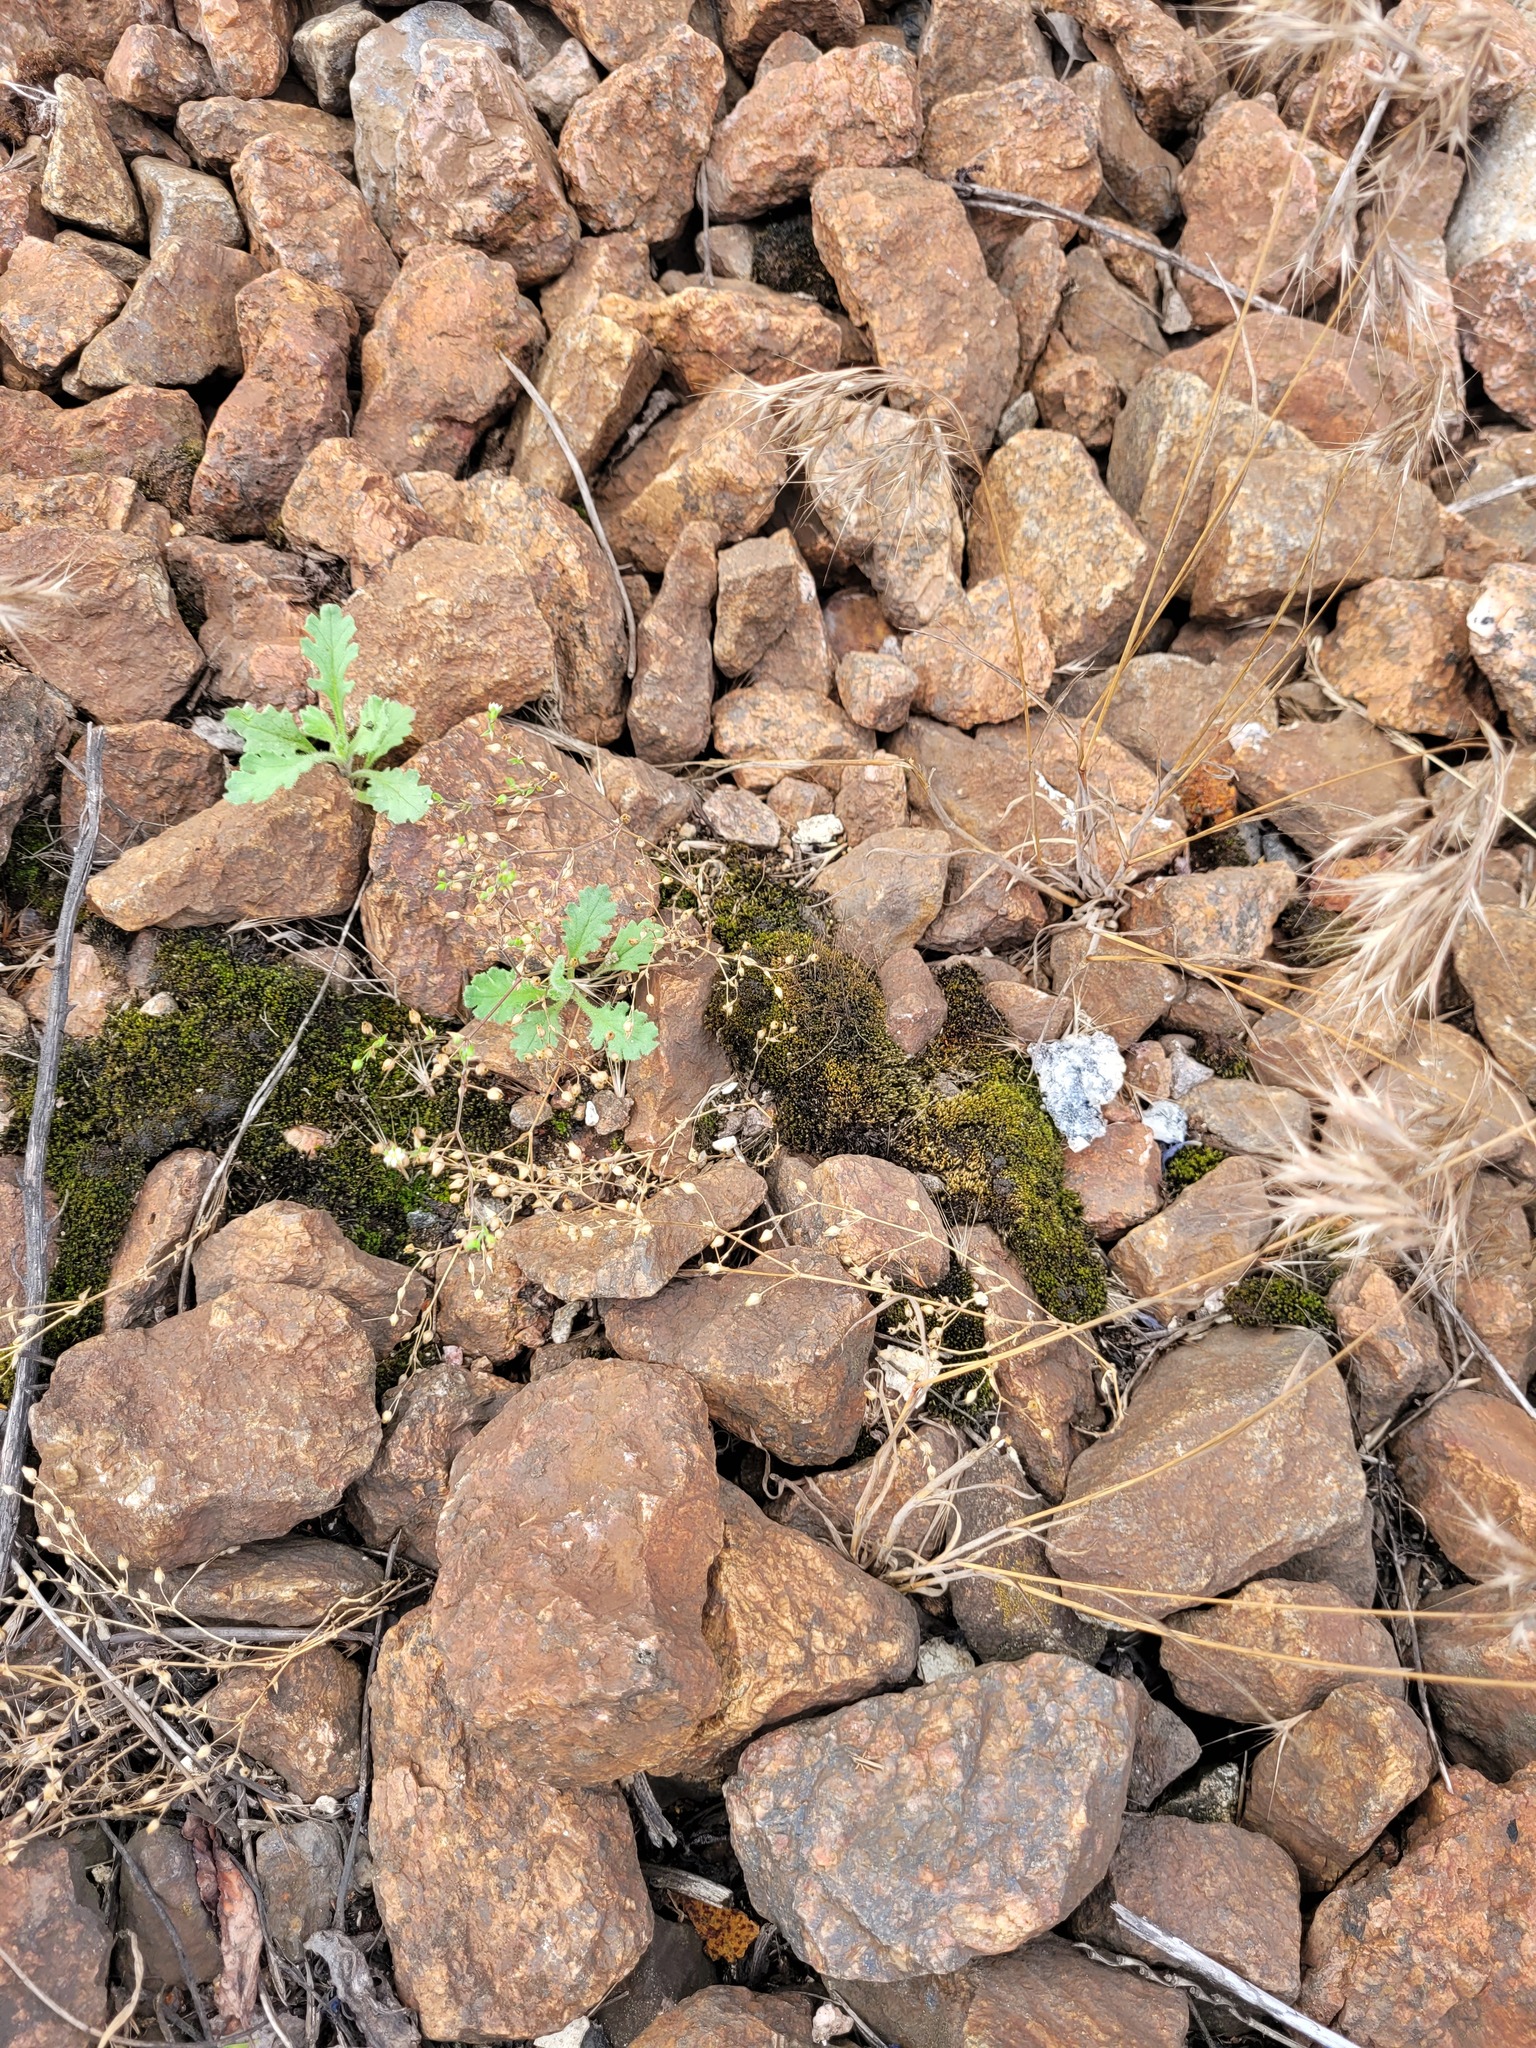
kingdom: Plantae
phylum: Tracheophyta
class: Magnoliopsida
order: Caryophyllales
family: Caryophyllaceae
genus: Arenaria
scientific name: Arenaria serpyllifolia
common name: Thyme-leaved sandwort
